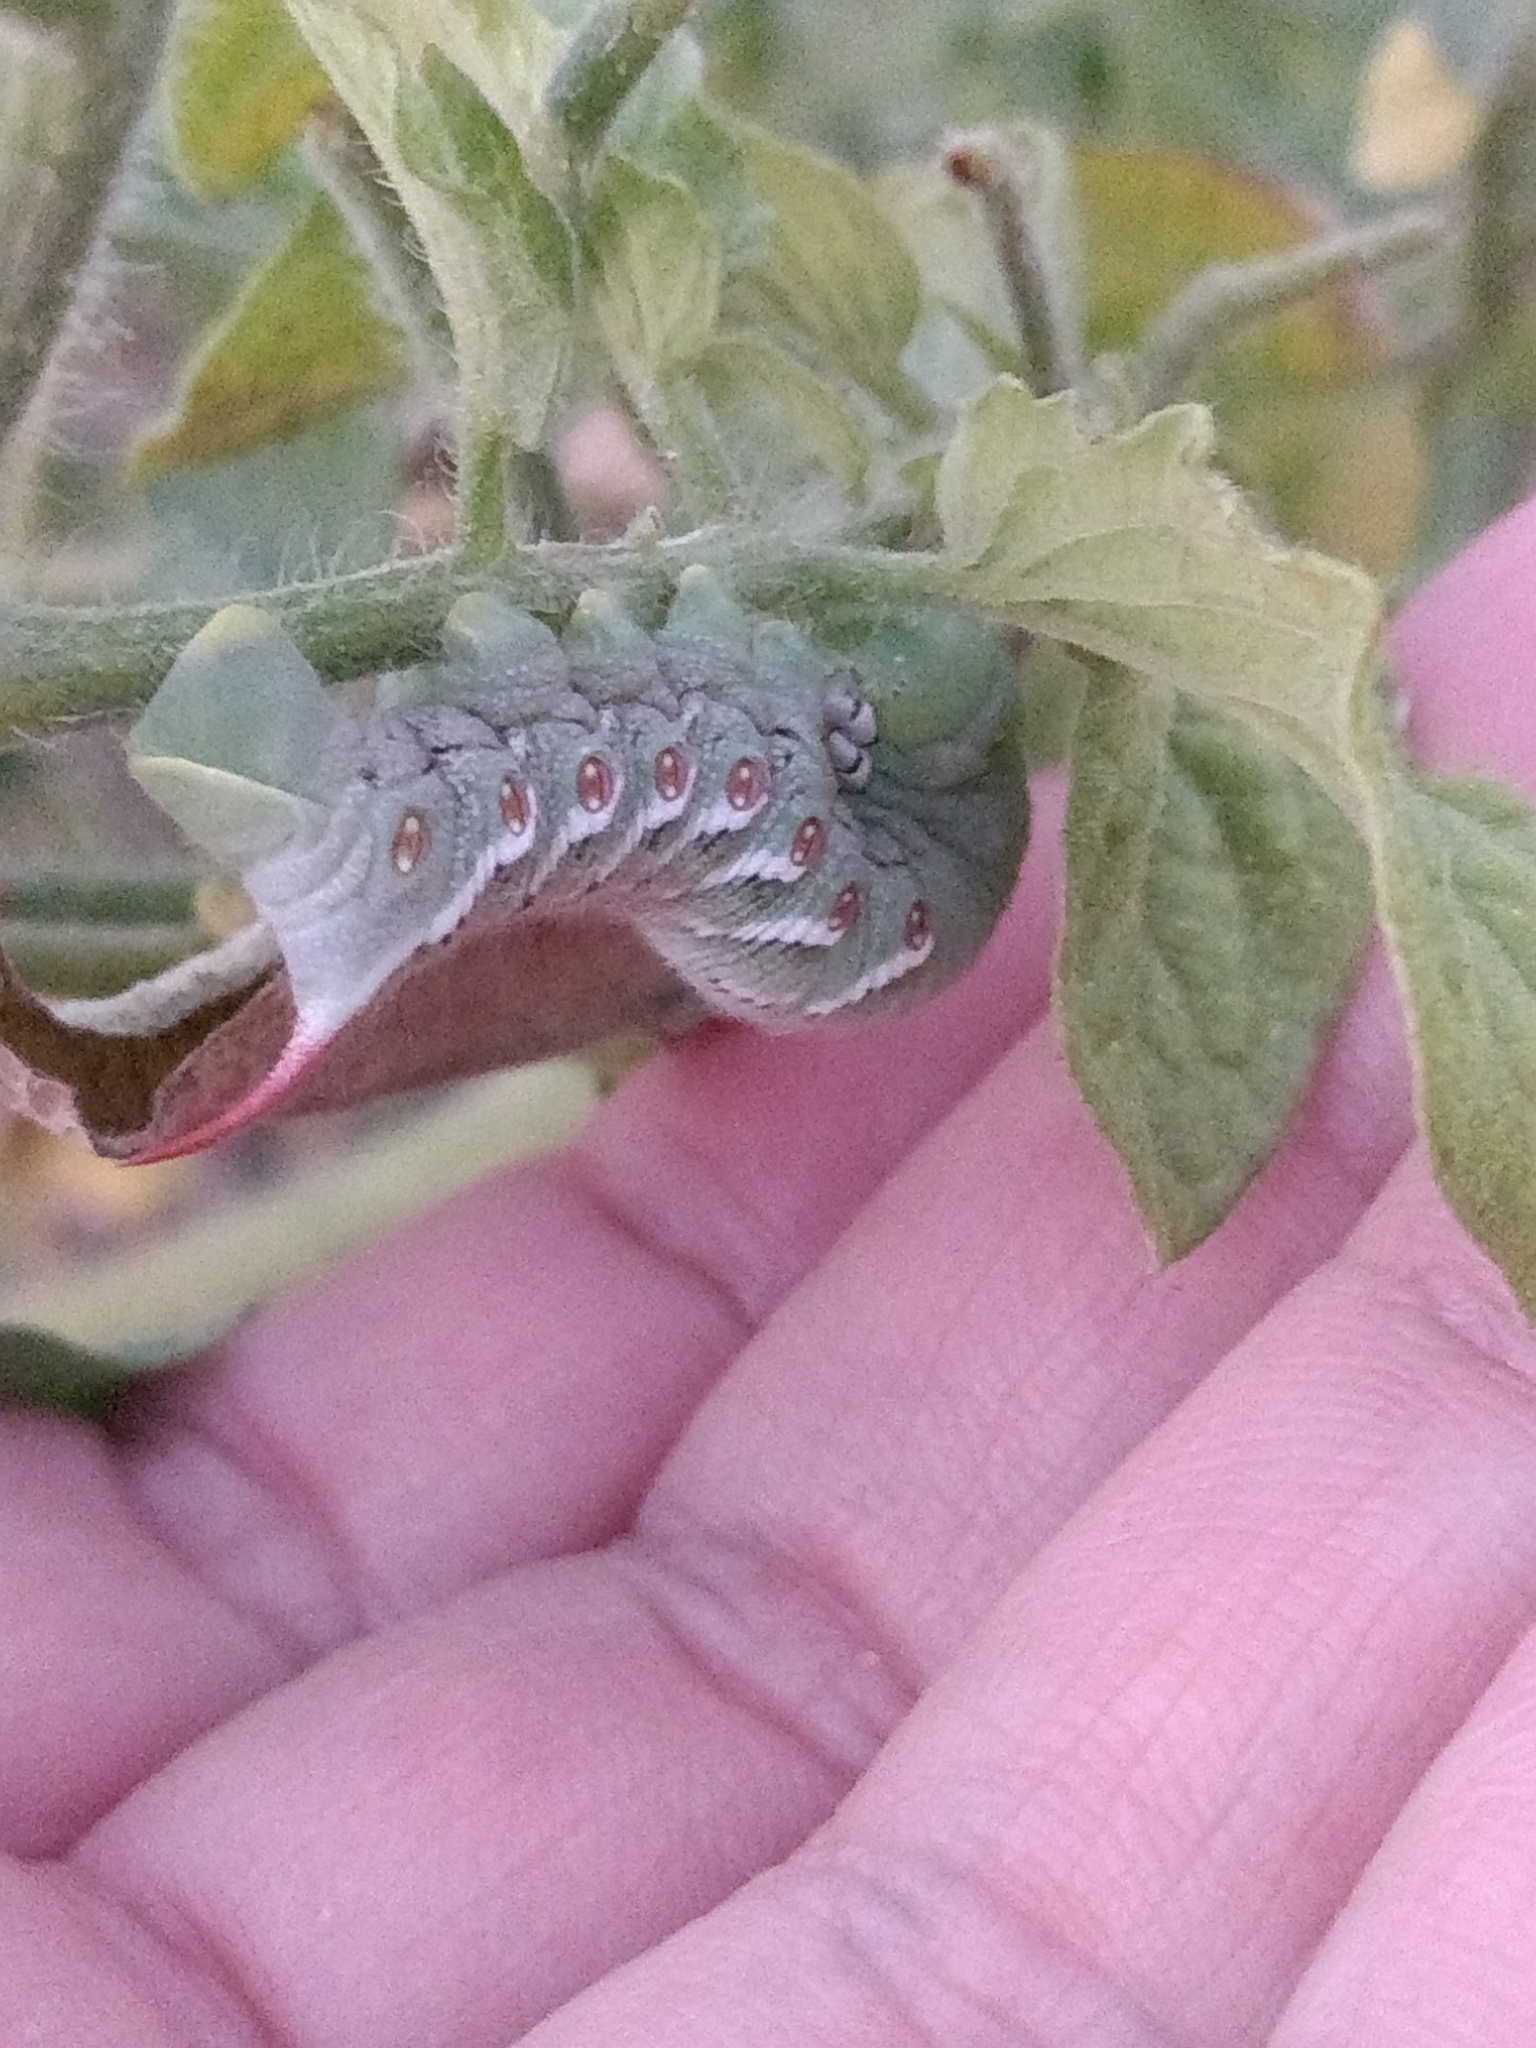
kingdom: Animalia
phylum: Arthropoda
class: Insecta
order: Lepidoptera
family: Sphingidae
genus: Manduca
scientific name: Manduca sexta
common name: Carolina sphinx
